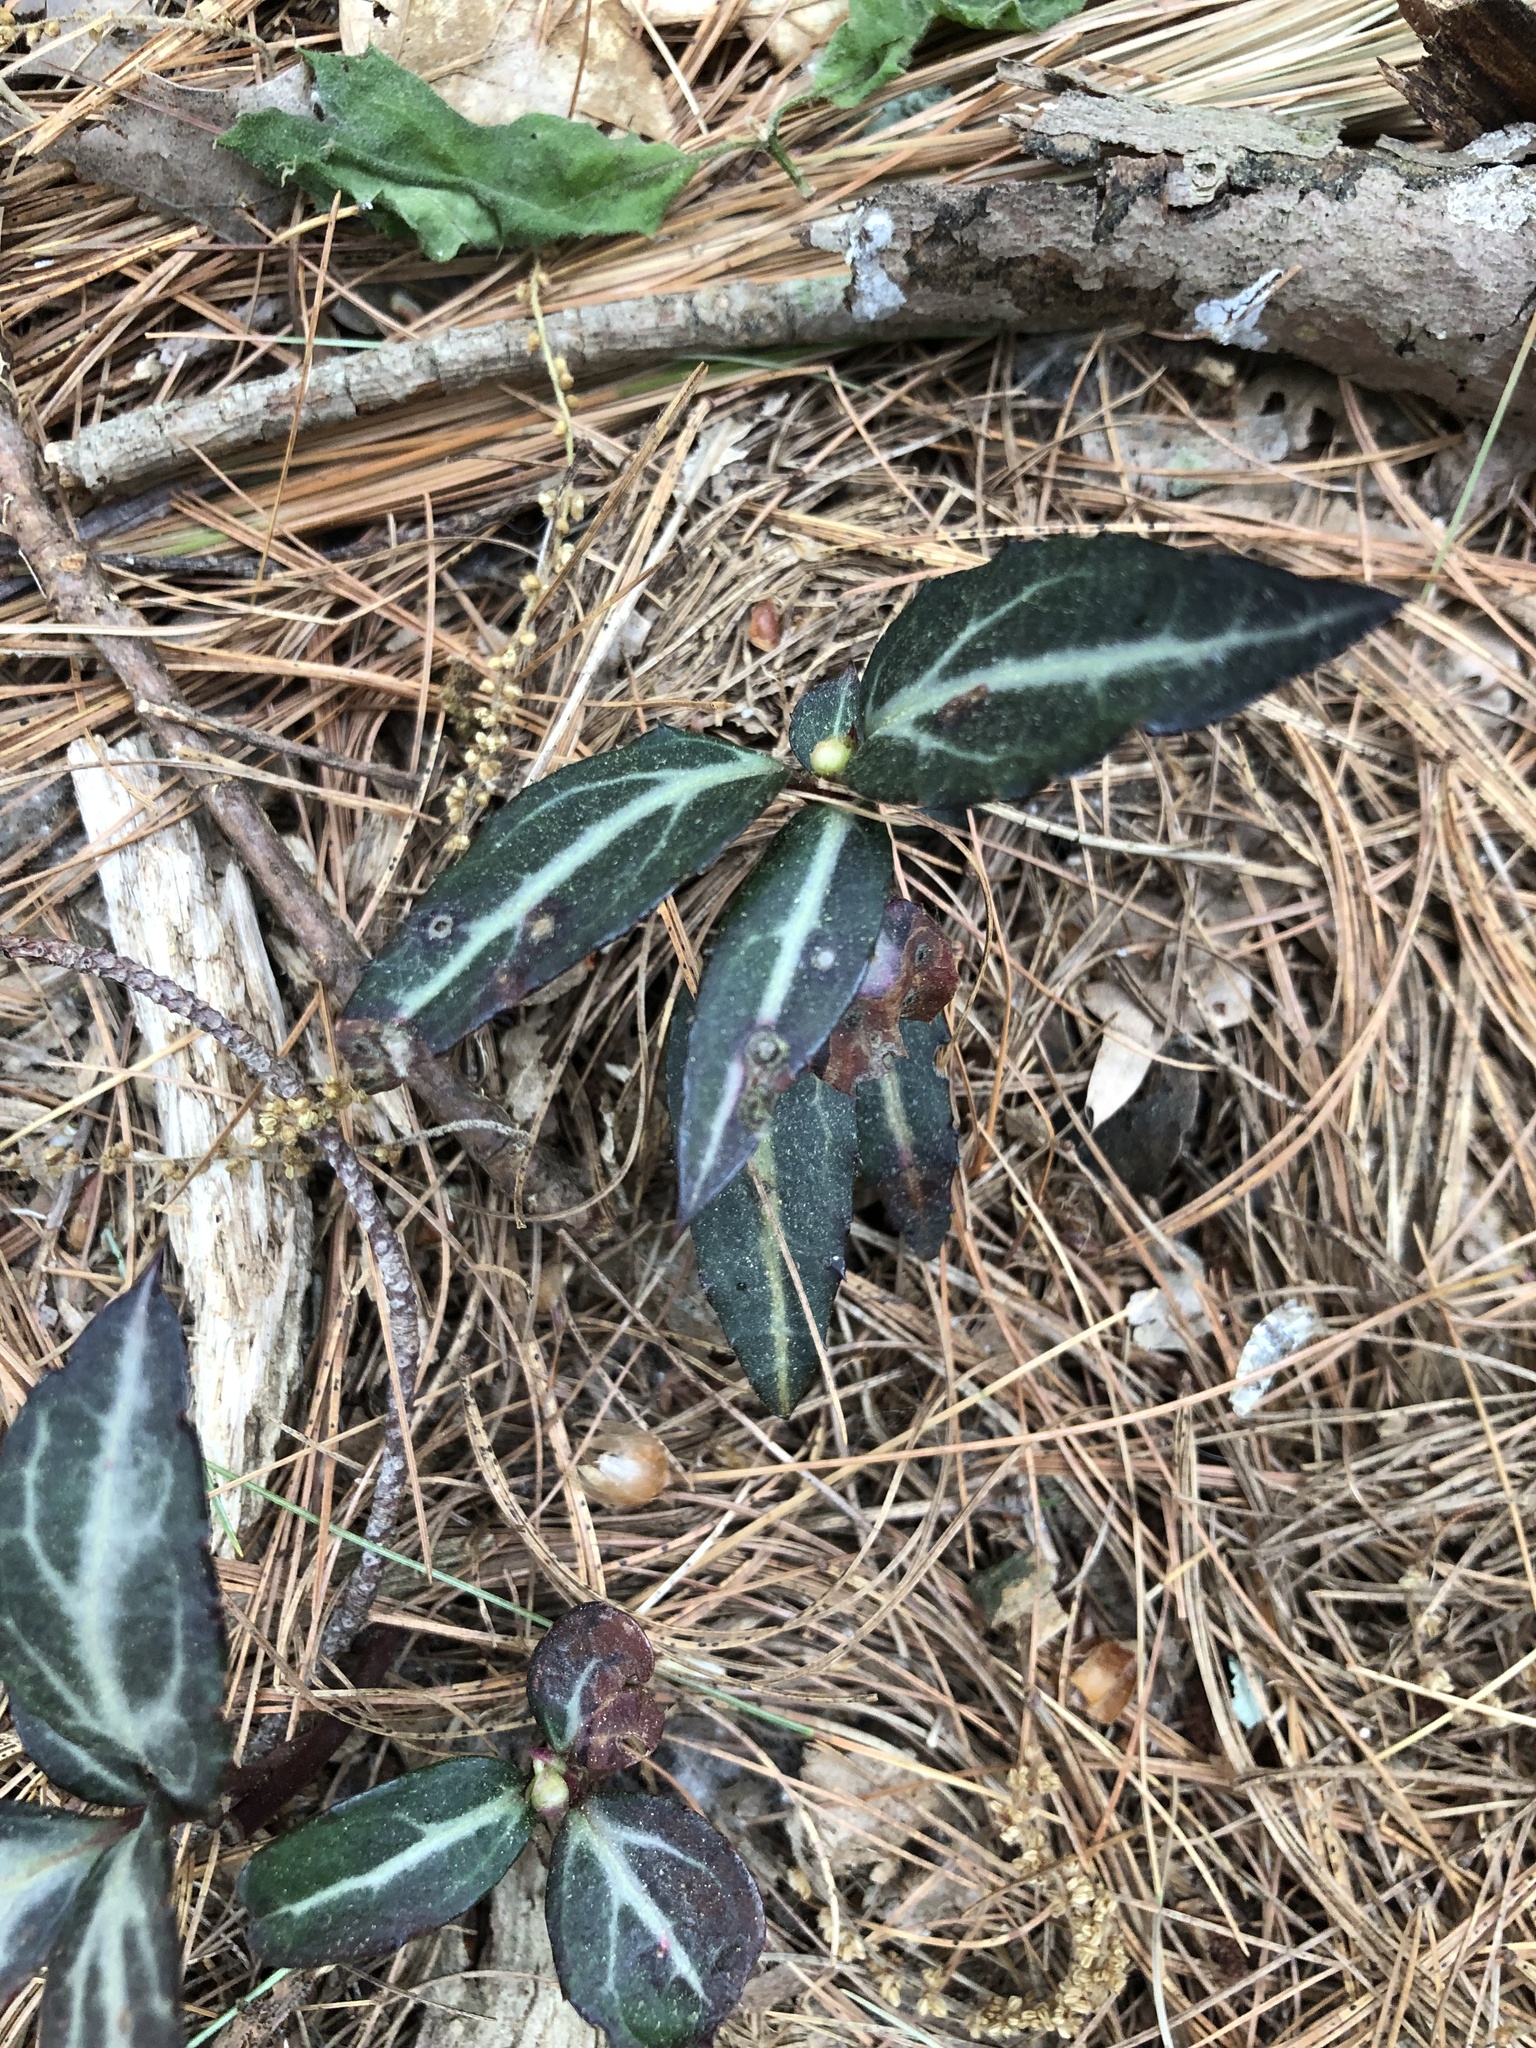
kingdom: Plantae
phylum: Tracheophyta
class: Magnoliopsida
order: Ericales
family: Ericaceae
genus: Chimaphila
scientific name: Chimaphila maculata
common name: Spotted pipsissewa
